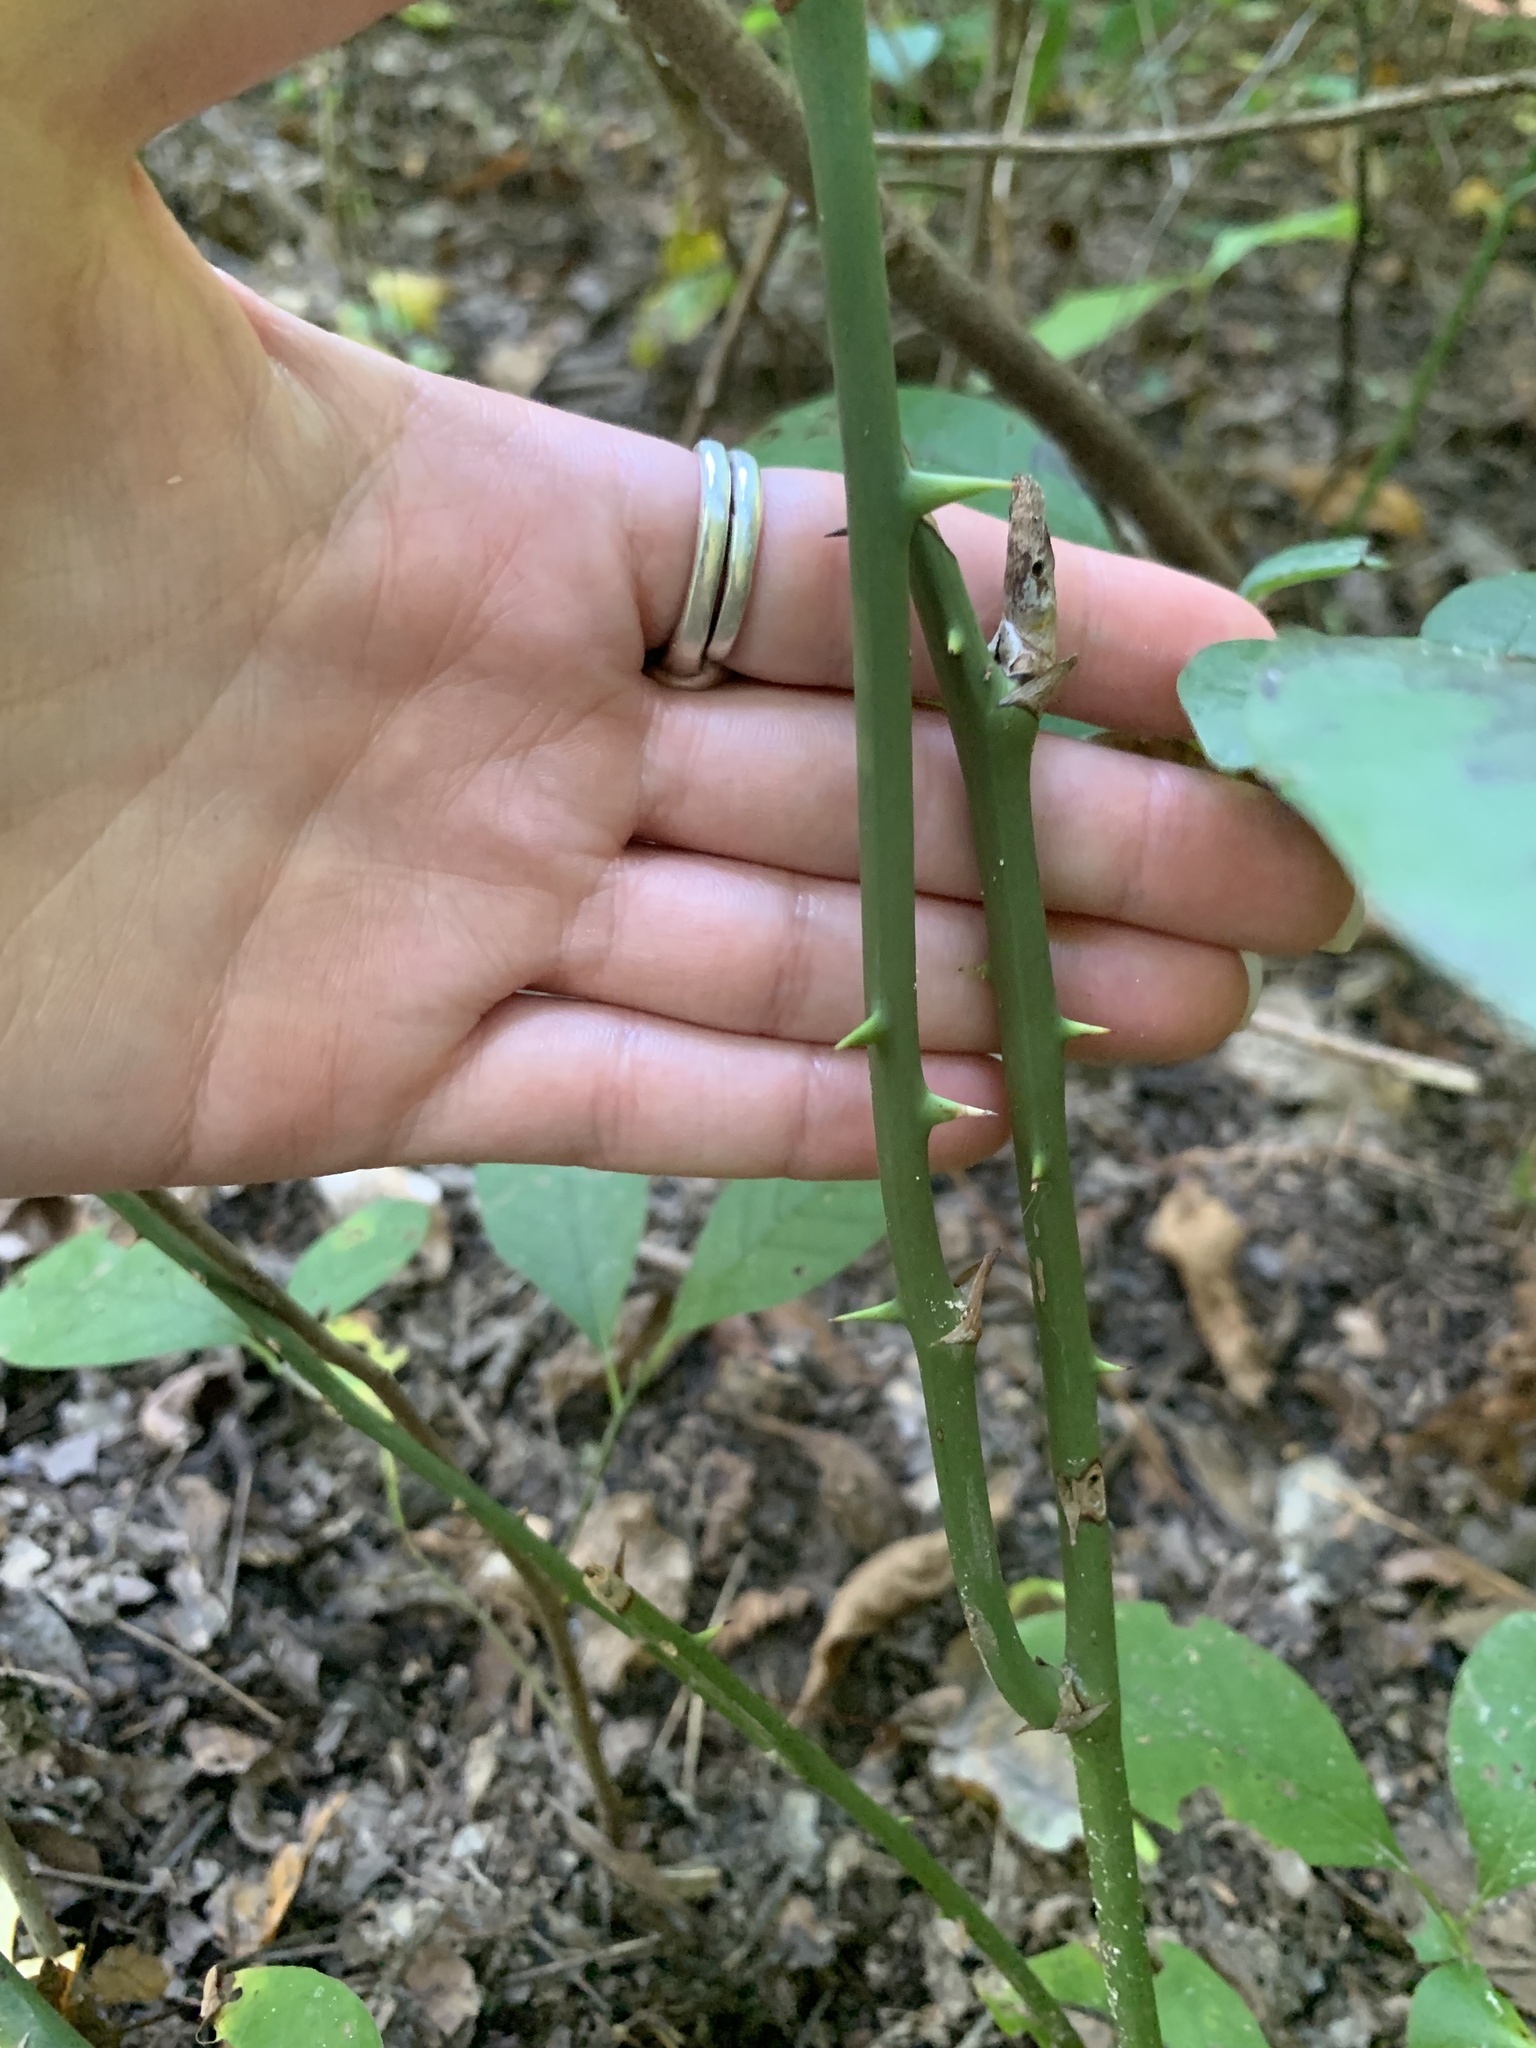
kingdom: Plantae
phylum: Tracheophyta
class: Liliopsida
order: Liliales
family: Smilacaceae
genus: Smilax
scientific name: Smilax rotundifolia
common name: Bullbriar
